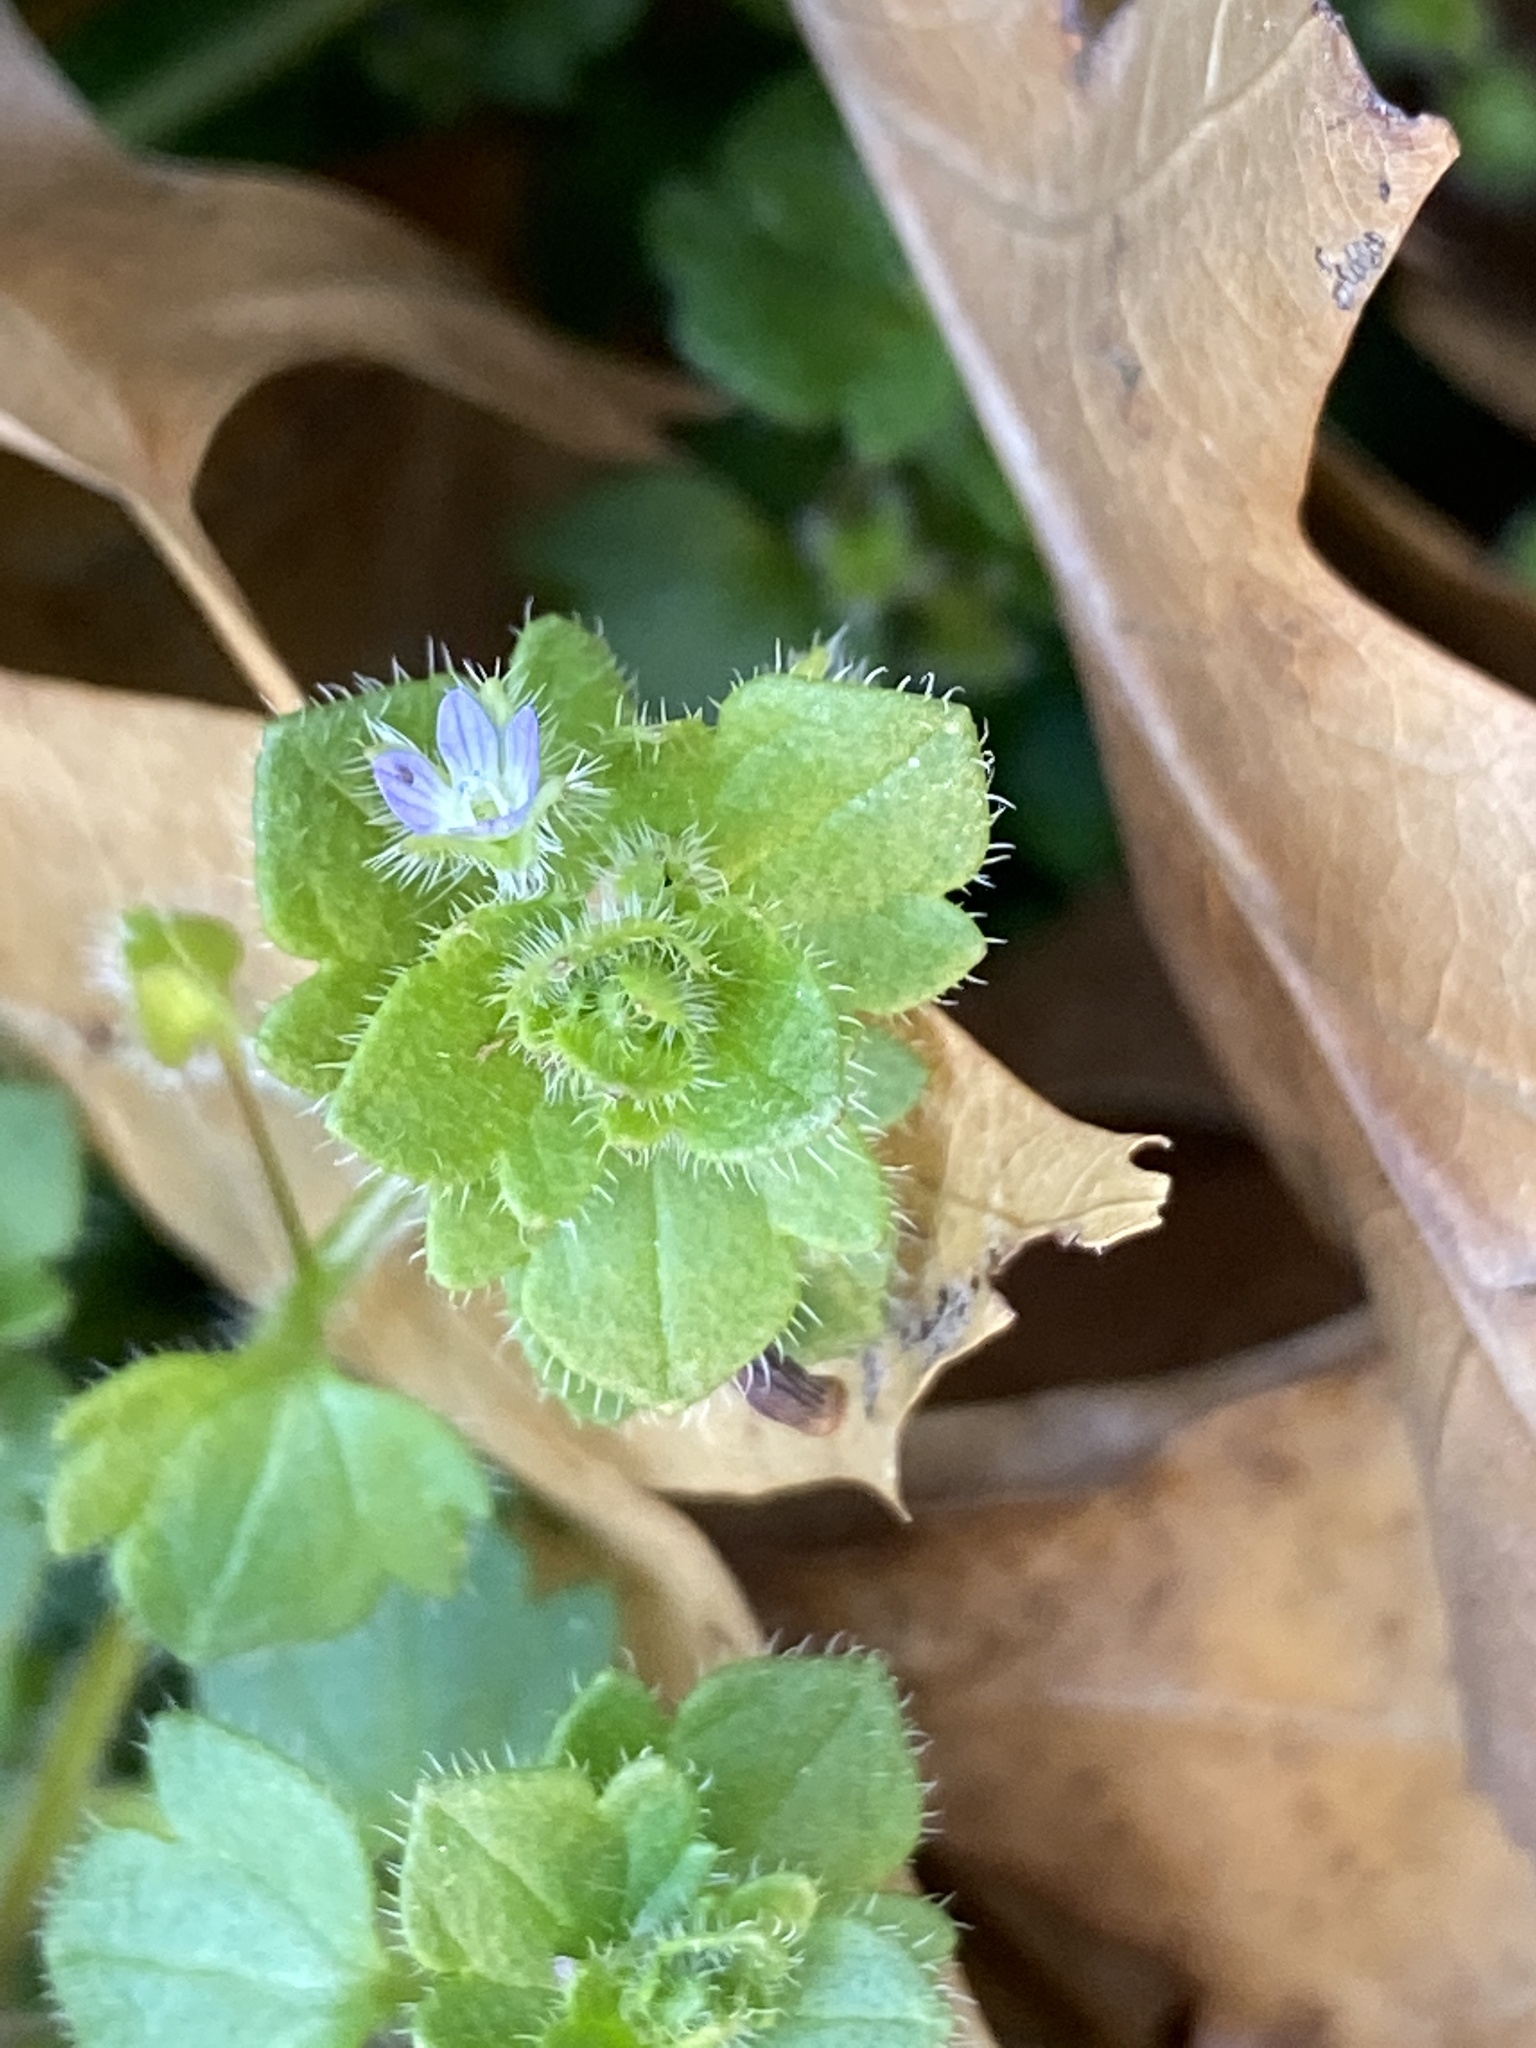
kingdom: Plantae
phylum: Tracheophyta
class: Magnoliopsida
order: Lamiales
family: Plantaginaceae
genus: Veronica
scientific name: Veronica hederifolia
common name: Ivy-leaved speedwell
